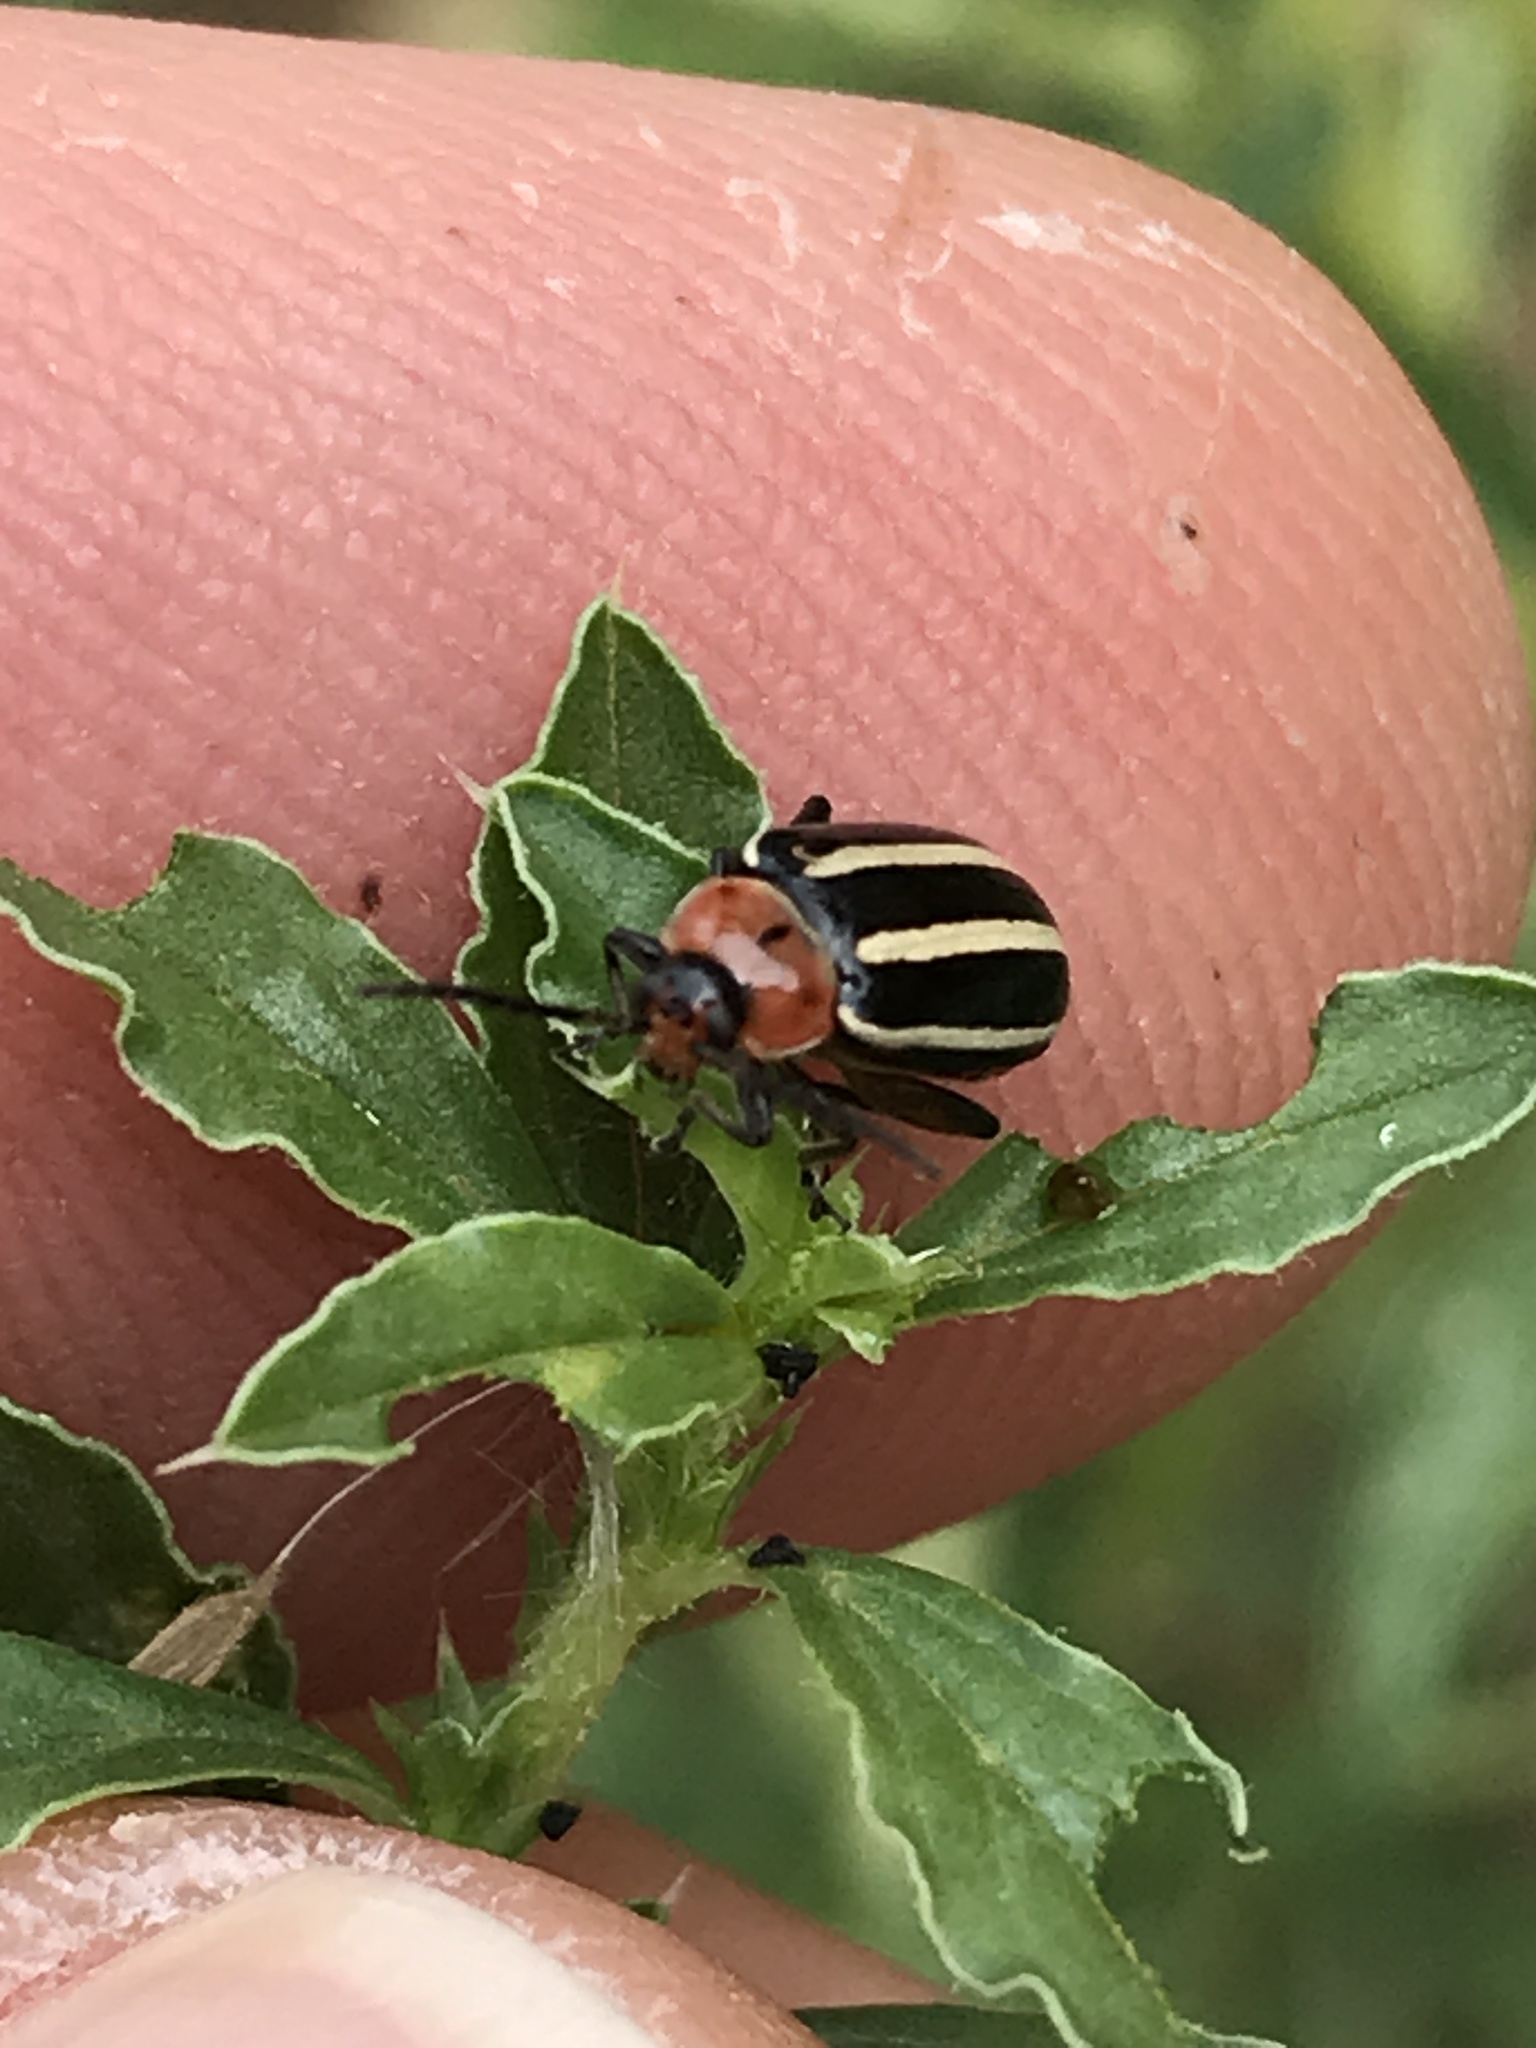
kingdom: Animalia
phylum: Arthropoda
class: Insecta
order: Coleoptera
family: Chrysomelidae
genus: Disonycha
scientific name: Disonycha glabrata
